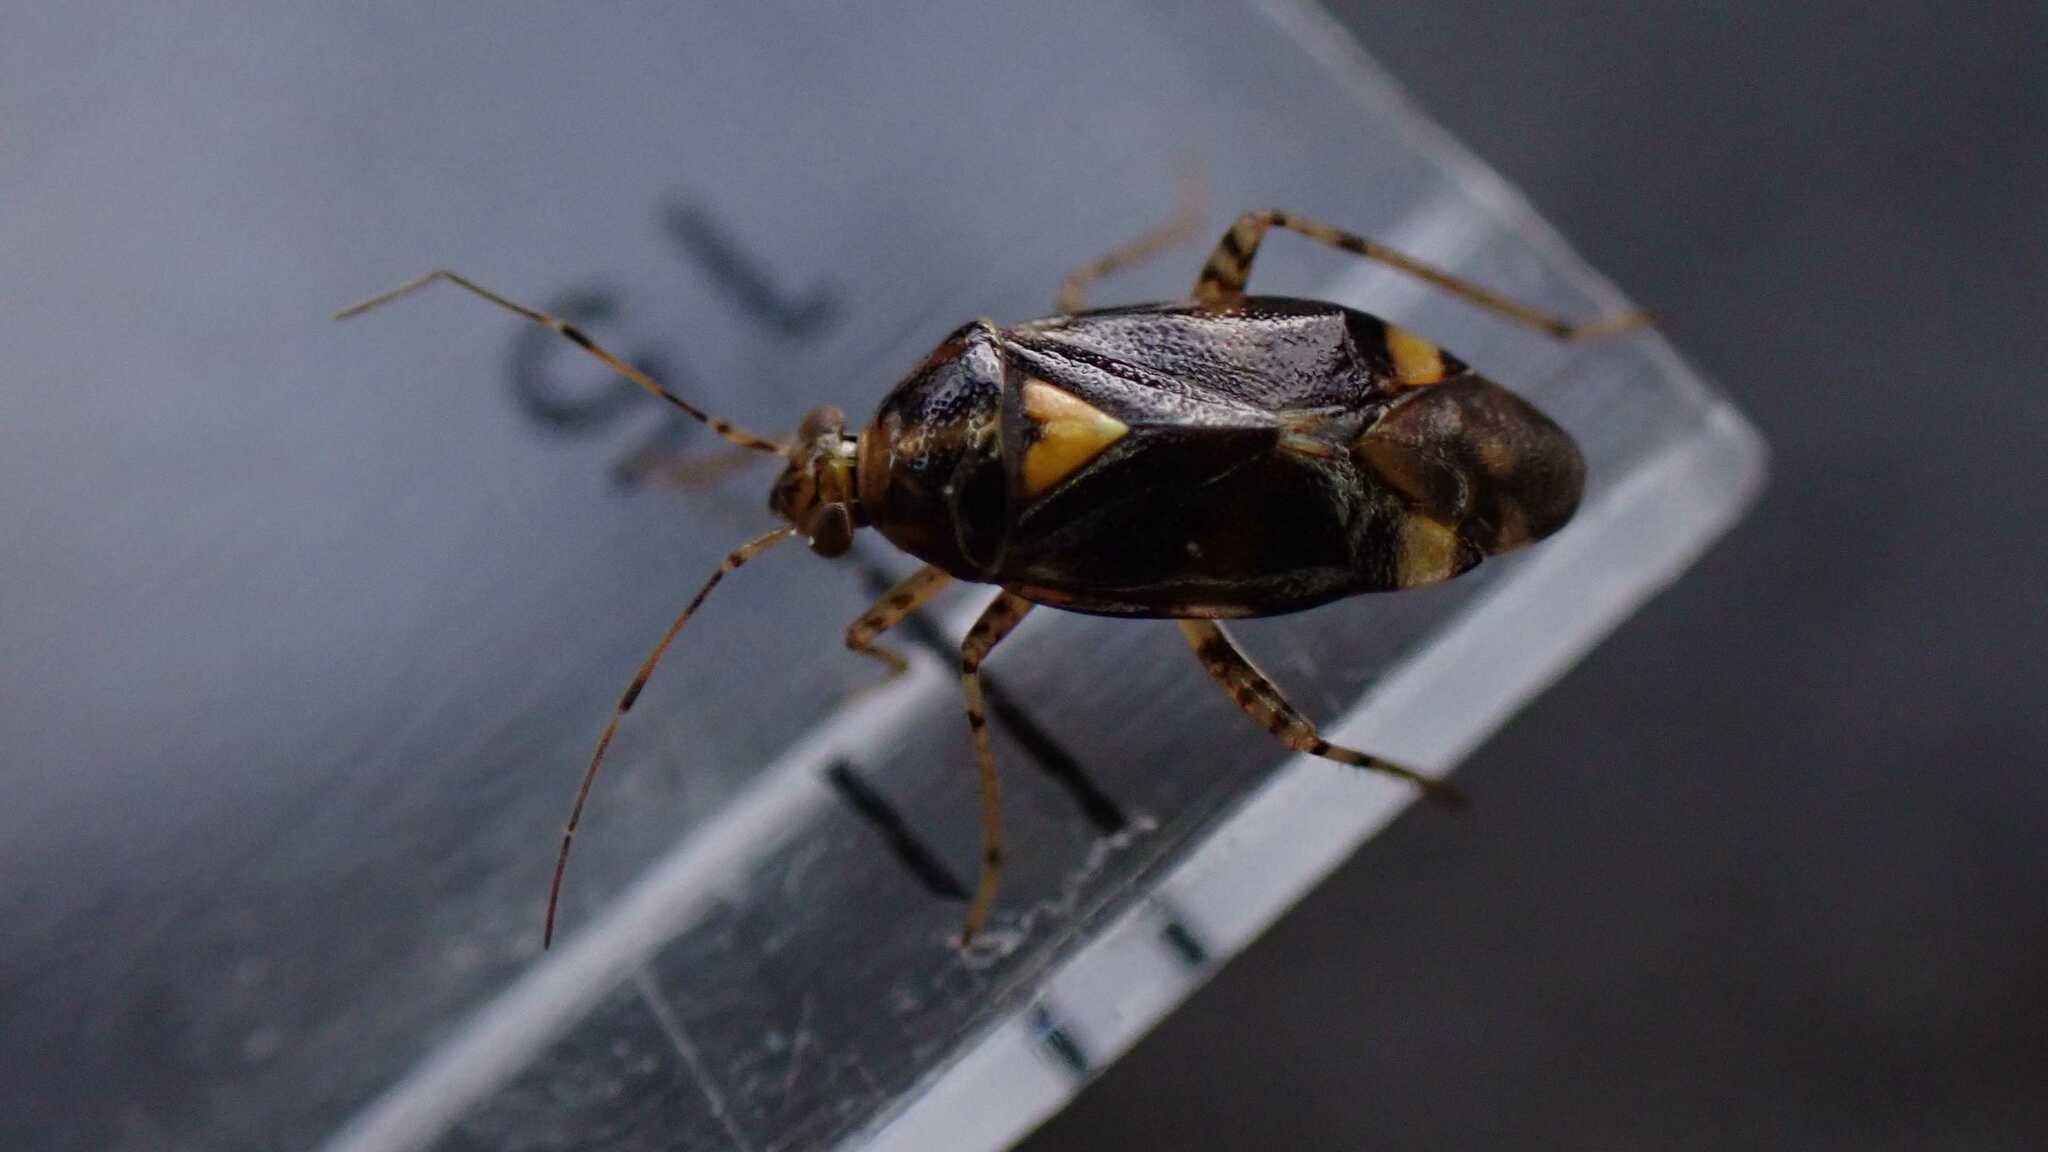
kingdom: Animalia
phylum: Arthropoda
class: Insecta
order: Hemiptera
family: Miridae
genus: Liocoris
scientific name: Liocoris tripustulatus
